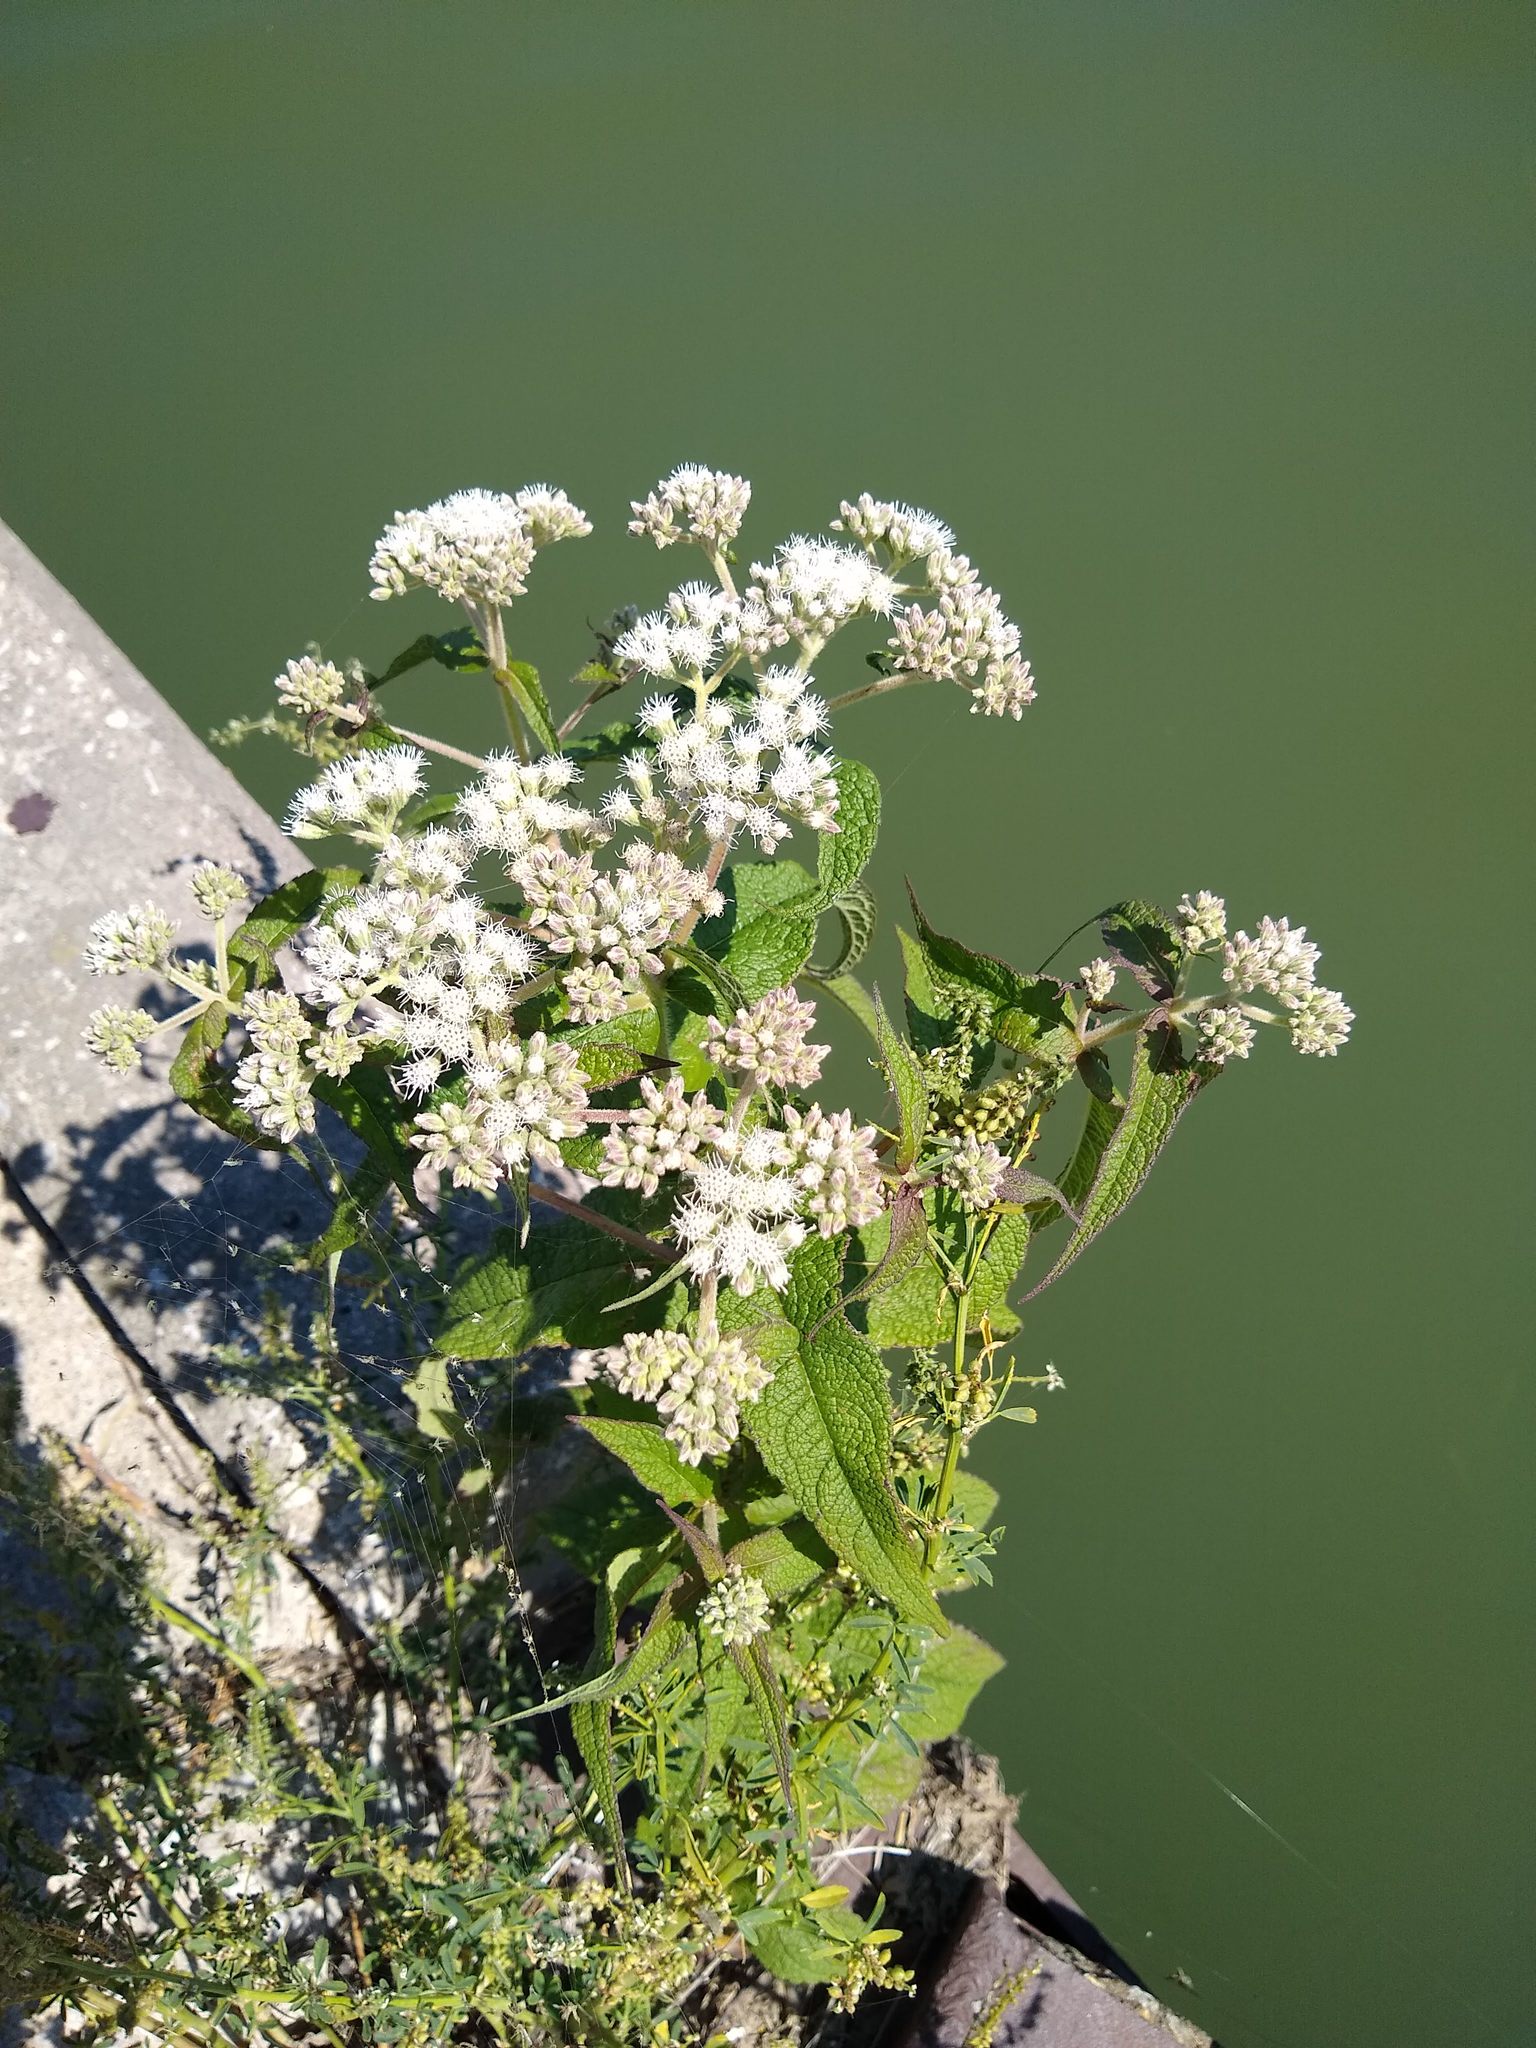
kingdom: Plantae
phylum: Tracheophyta
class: Magnoliopsida
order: Asterales
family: Asteraceae
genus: Eupatorium
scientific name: Eupatorium perfoliatum
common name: Boneset
